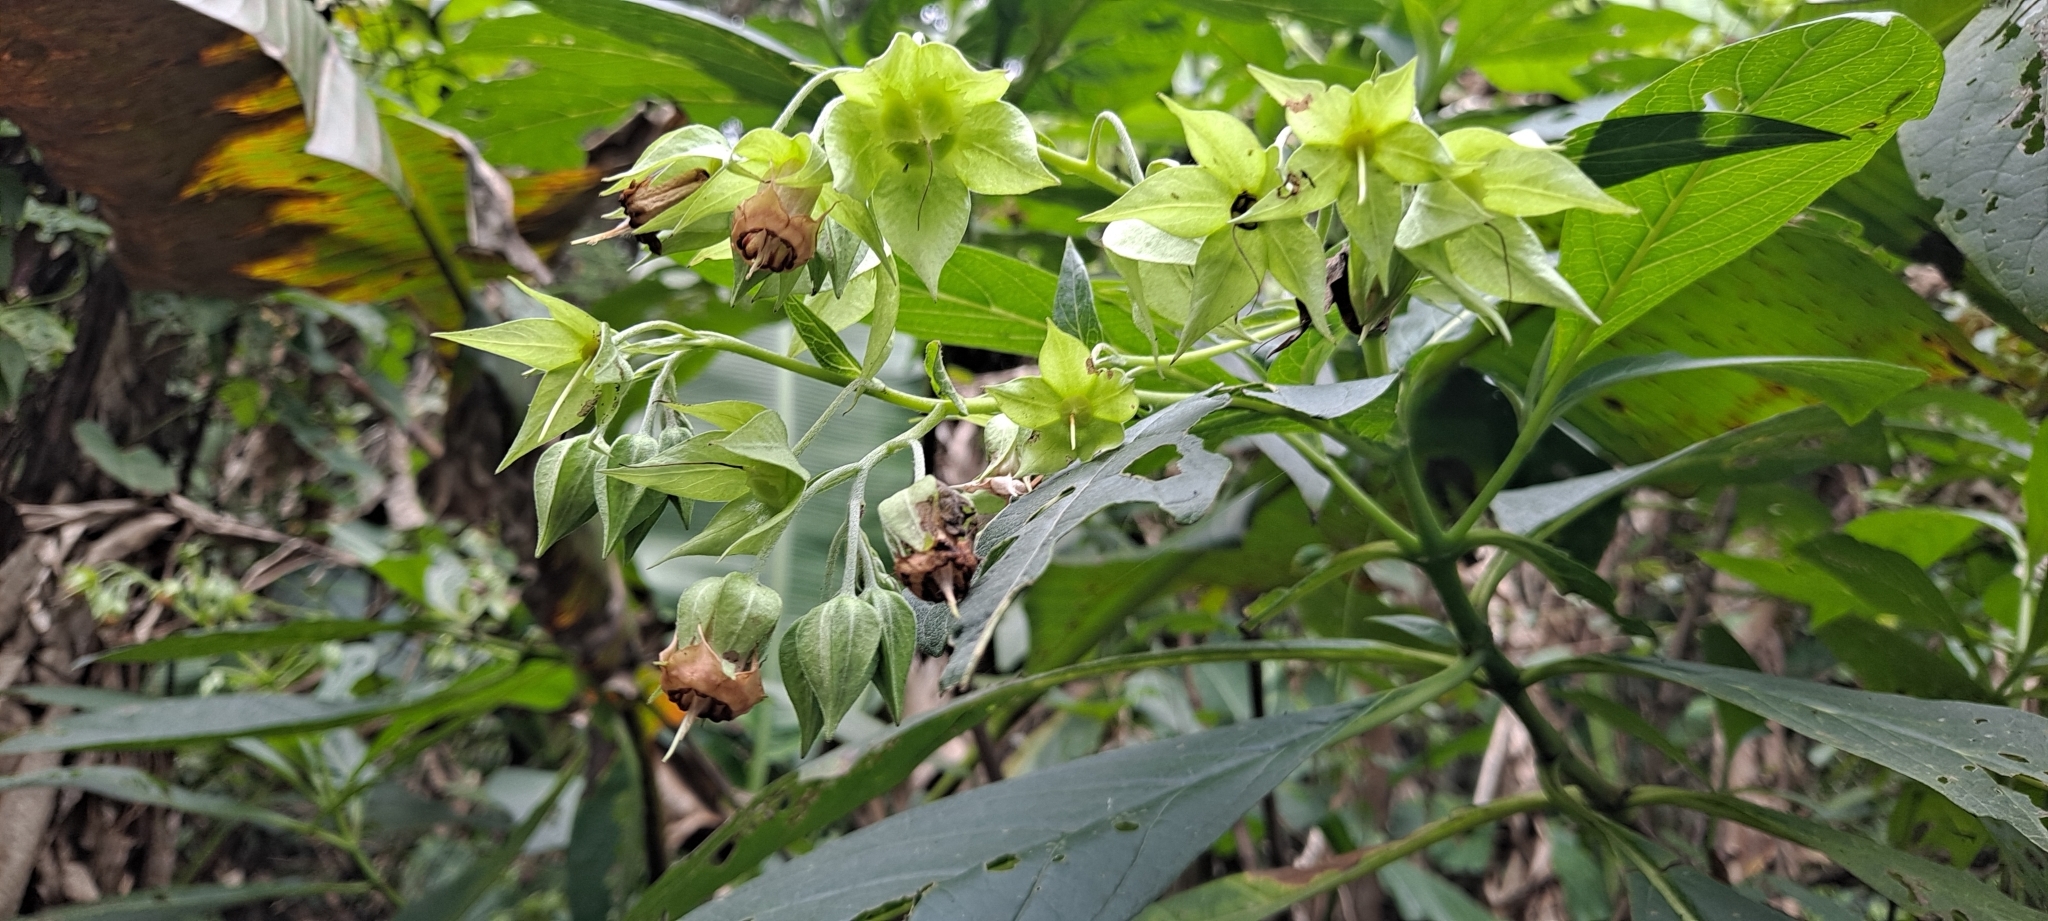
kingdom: Plantae
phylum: Tracheophyta
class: Magnoliopsida
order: Boraginales
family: Boraginaceae
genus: Trichodesma
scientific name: Trichodesma calycosum
